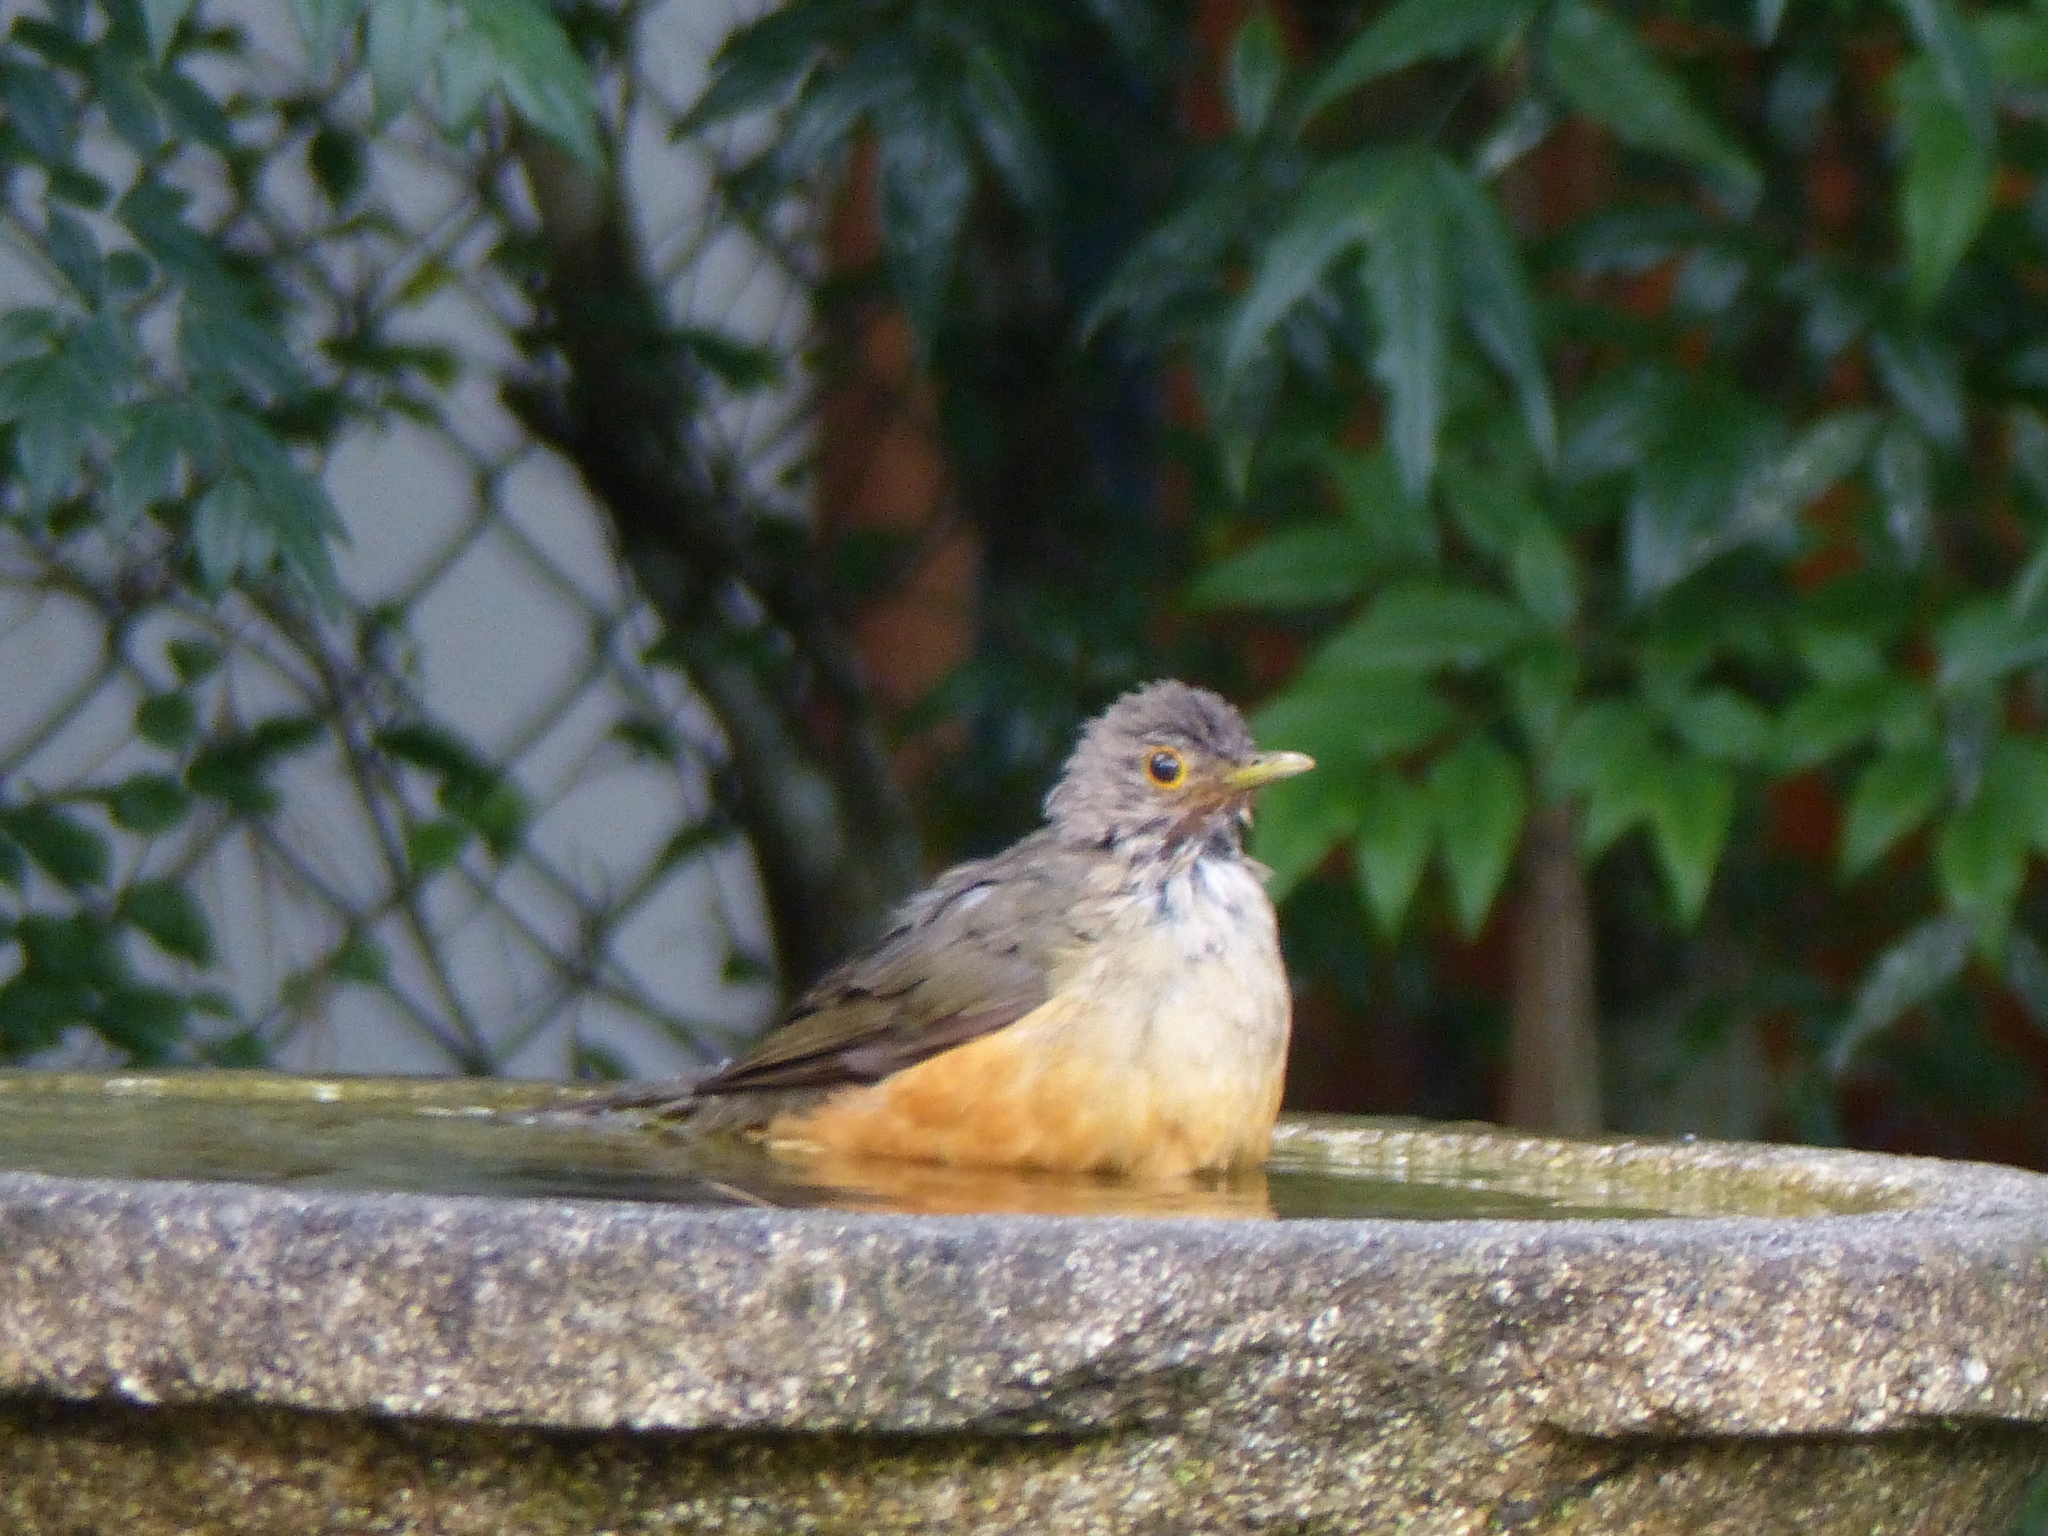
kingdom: Animalia
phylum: Chordata
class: Aves
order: Passeriformes
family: Turdidae
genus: Turdus
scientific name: Turdus rufiventris
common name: Rufous-bellied thrush
